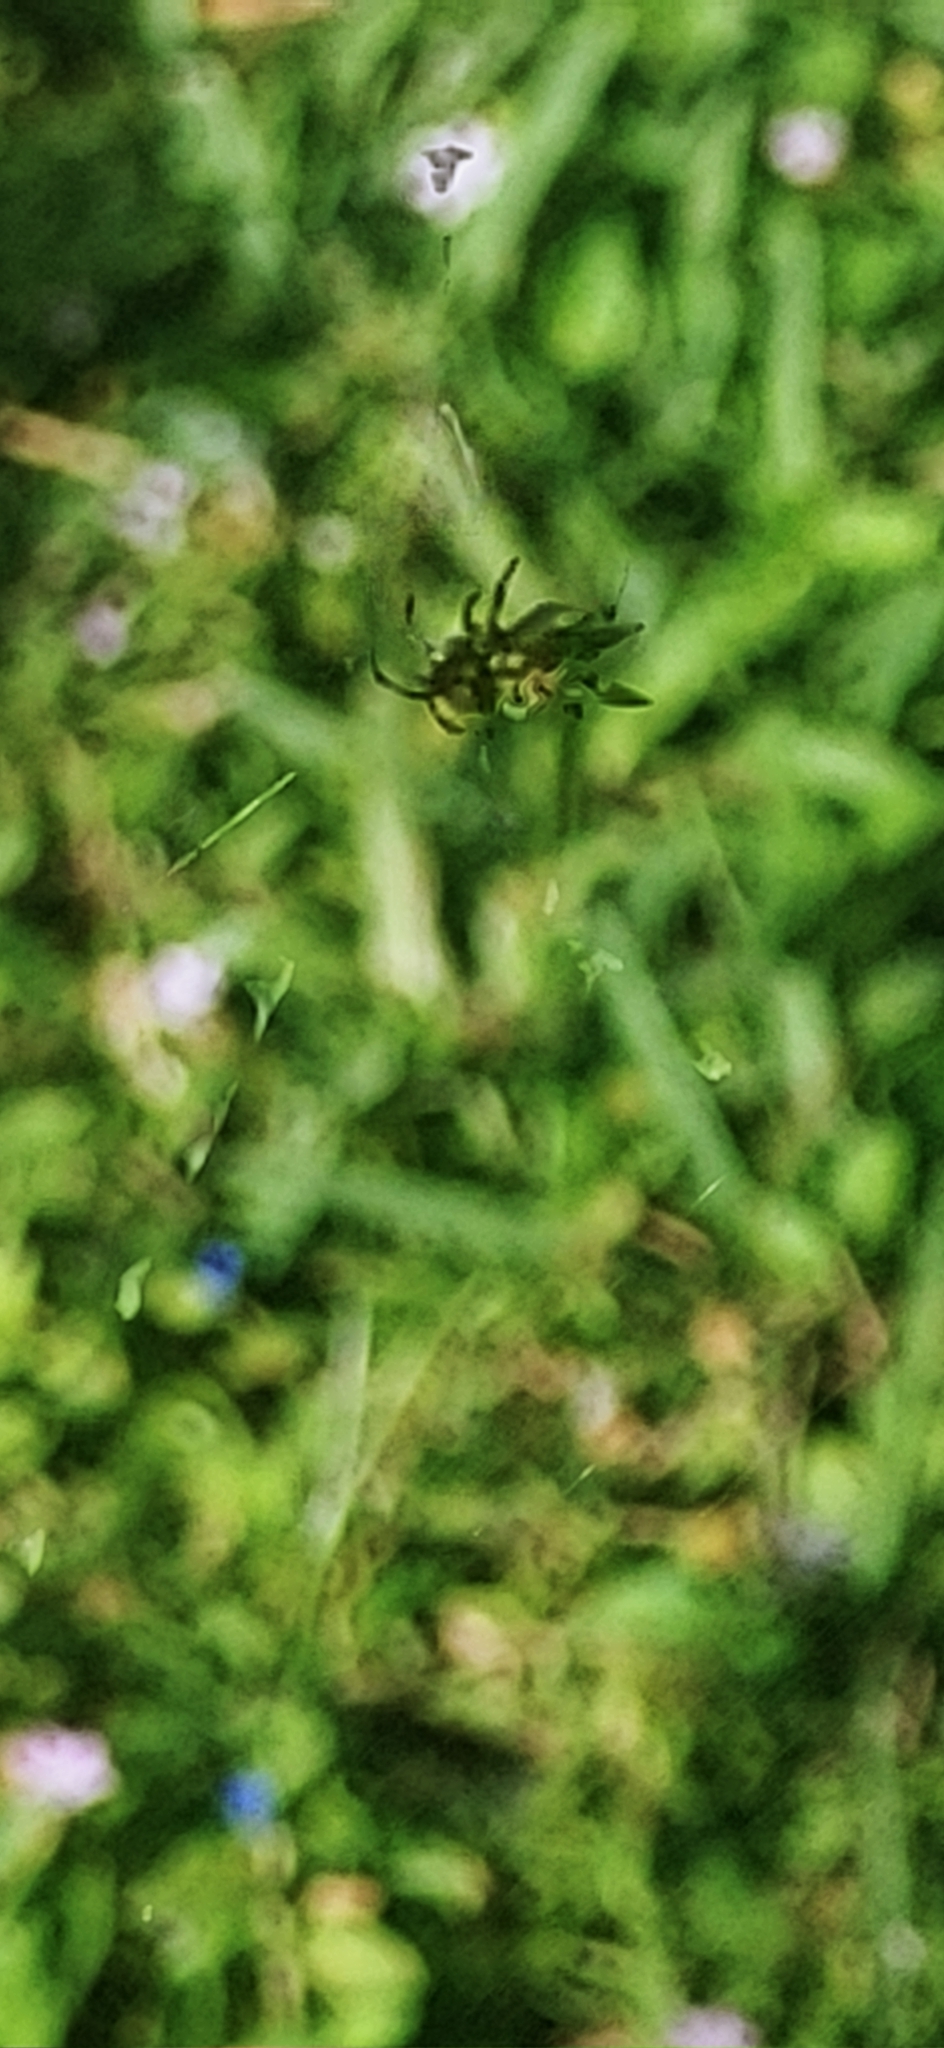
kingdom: Animalia
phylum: Arthropoda
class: Arachnida
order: Araneae
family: Araneidae
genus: Gasteracantha
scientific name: Gasteracantha cancriformis
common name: Orb weavers
